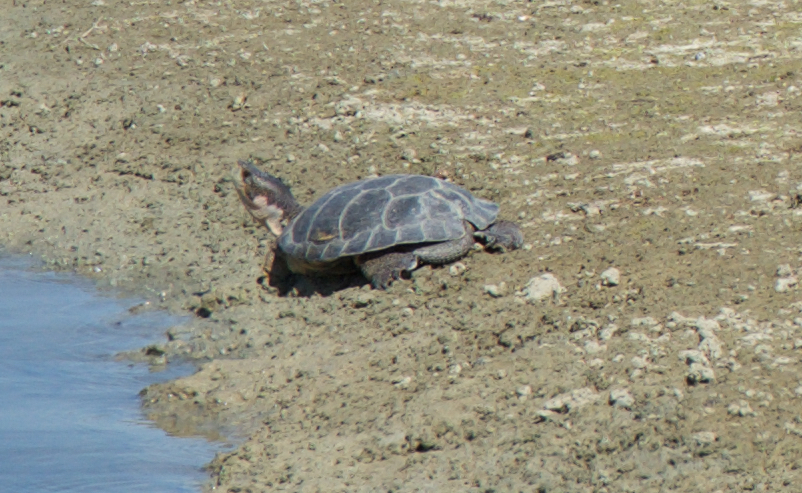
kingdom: Animalia
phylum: Chordata
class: Testudines
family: Emydidae
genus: Actinemys
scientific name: Actinemys marmorata
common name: Western pond turtle
